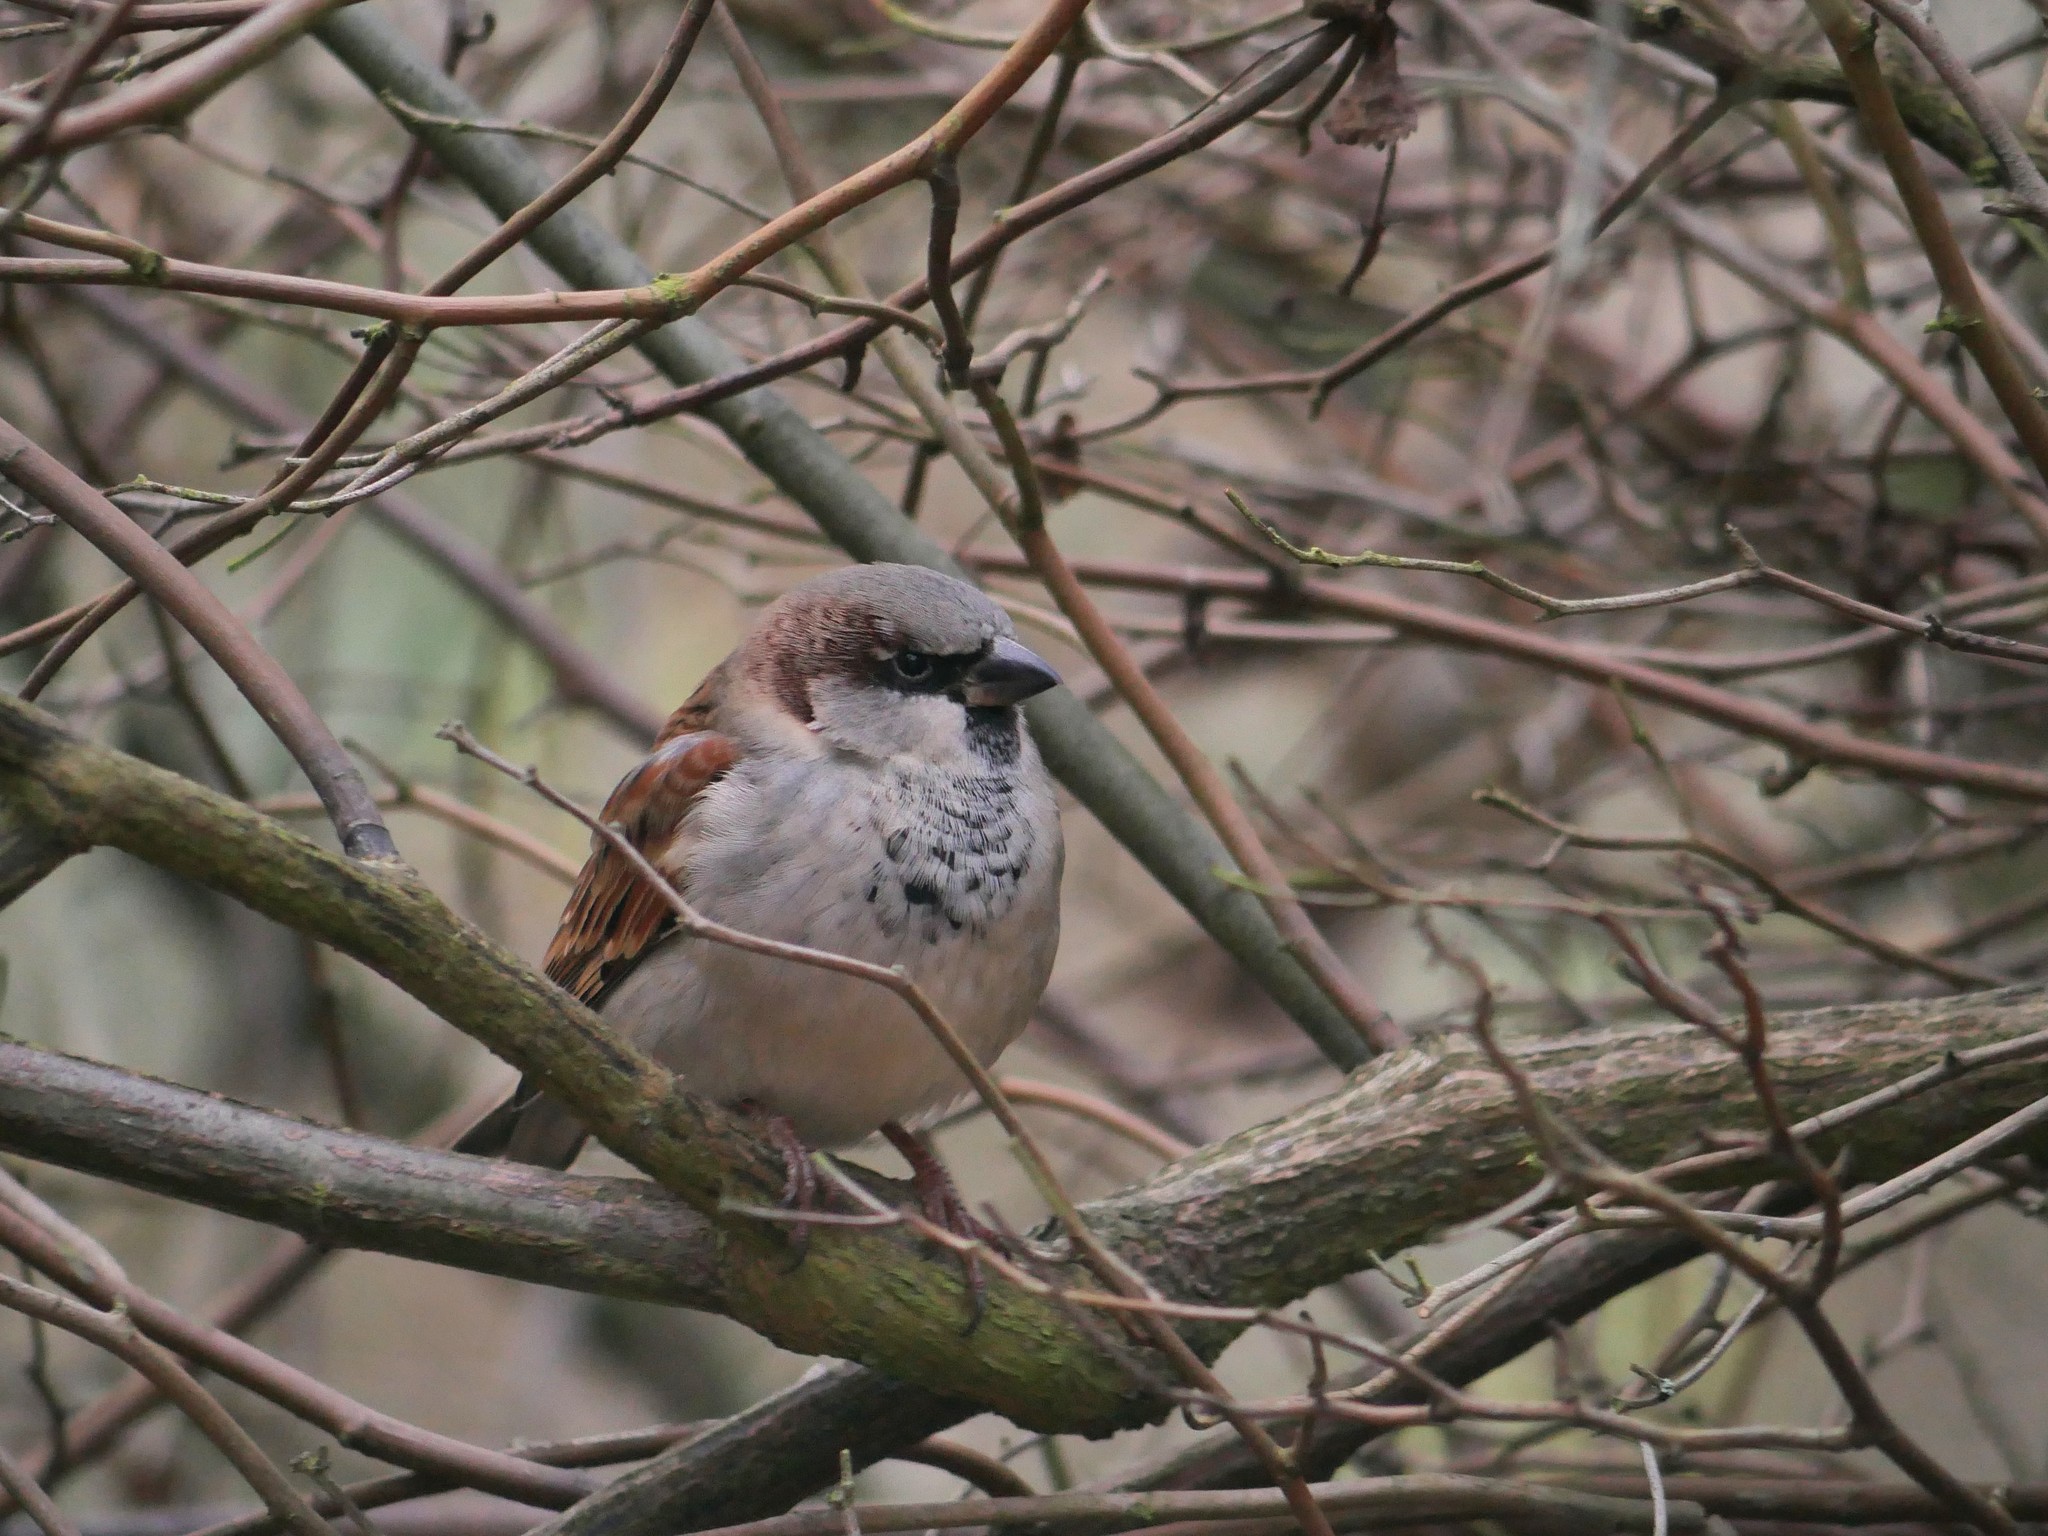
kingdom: Animalia
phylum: Chordata
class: Aves
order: Passeriformes
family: Passeridae
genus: Passer
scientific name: Passer domesticus
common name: House sparrow
